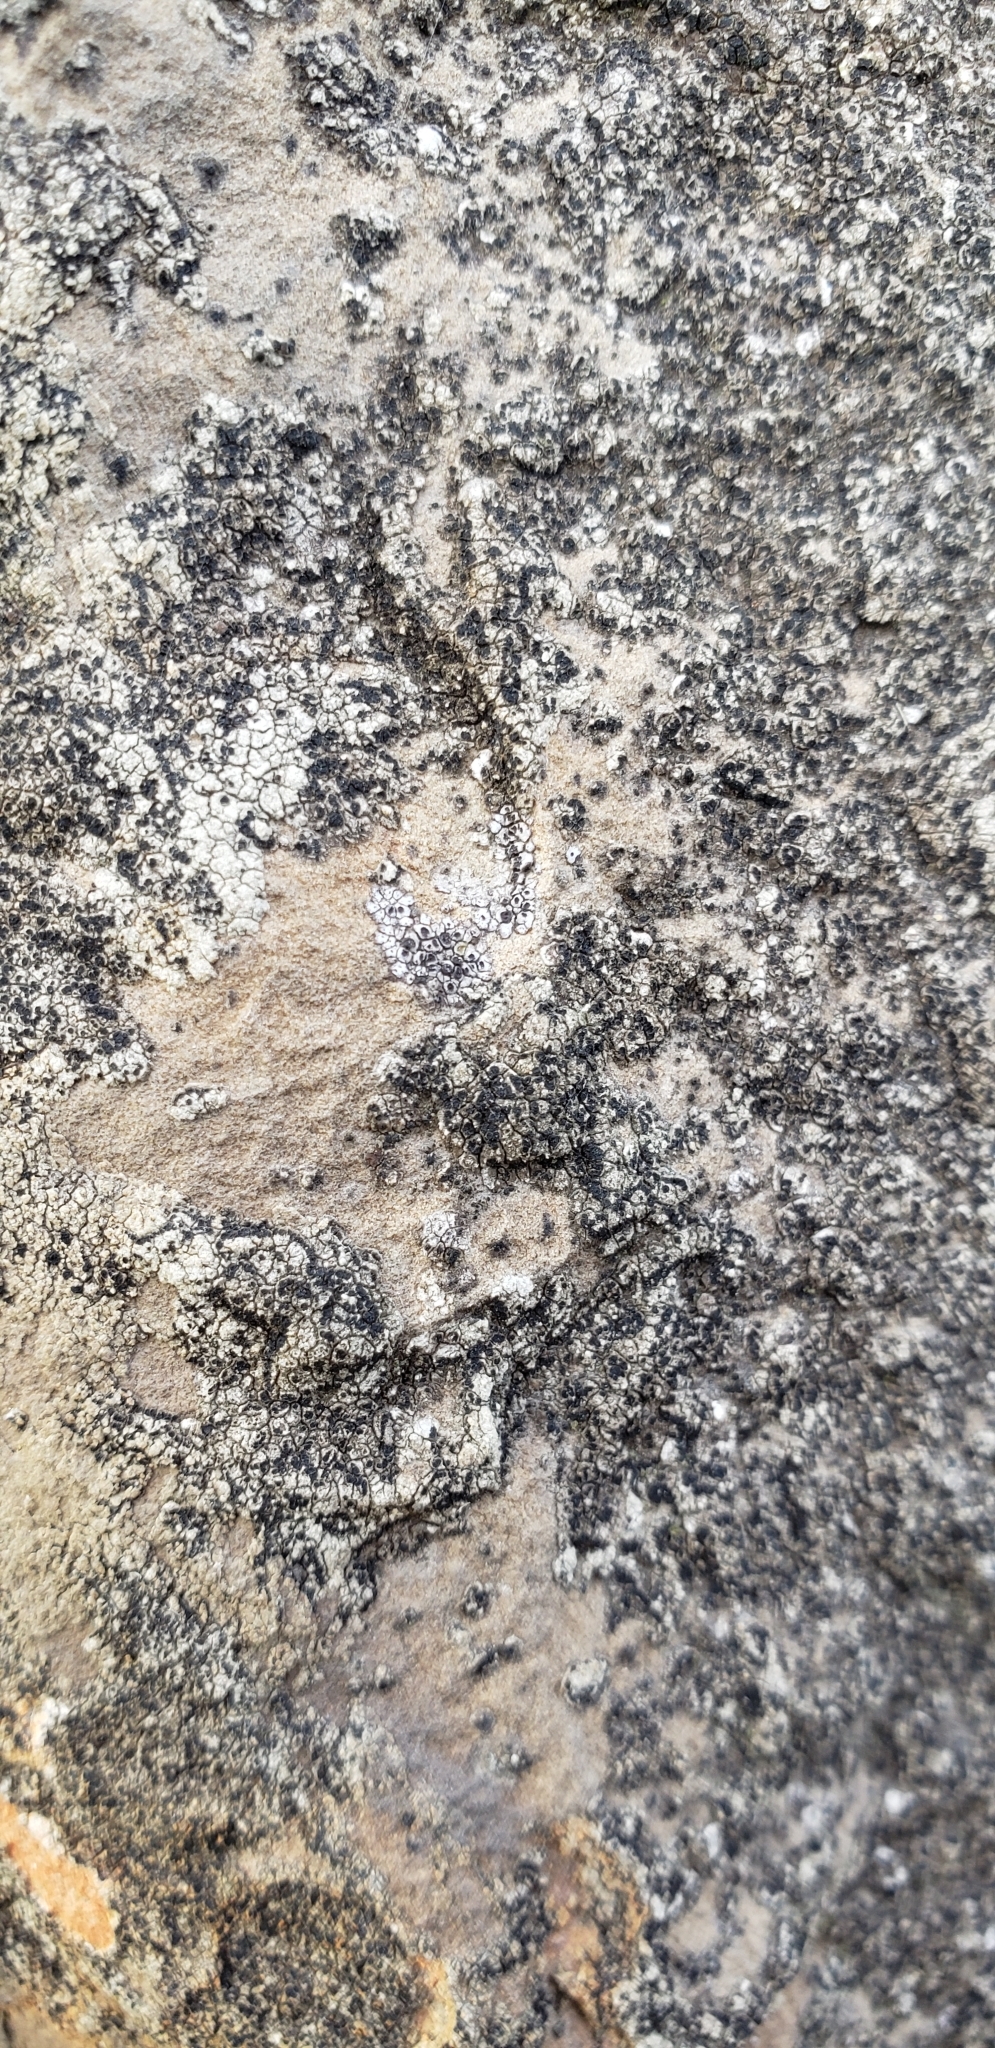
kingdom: Fungi
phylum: Ascomycota
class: Lecanoromycetes
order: Acarosporales
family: Acarosporaceae
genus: Acarospora
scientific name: Acarospora americana
